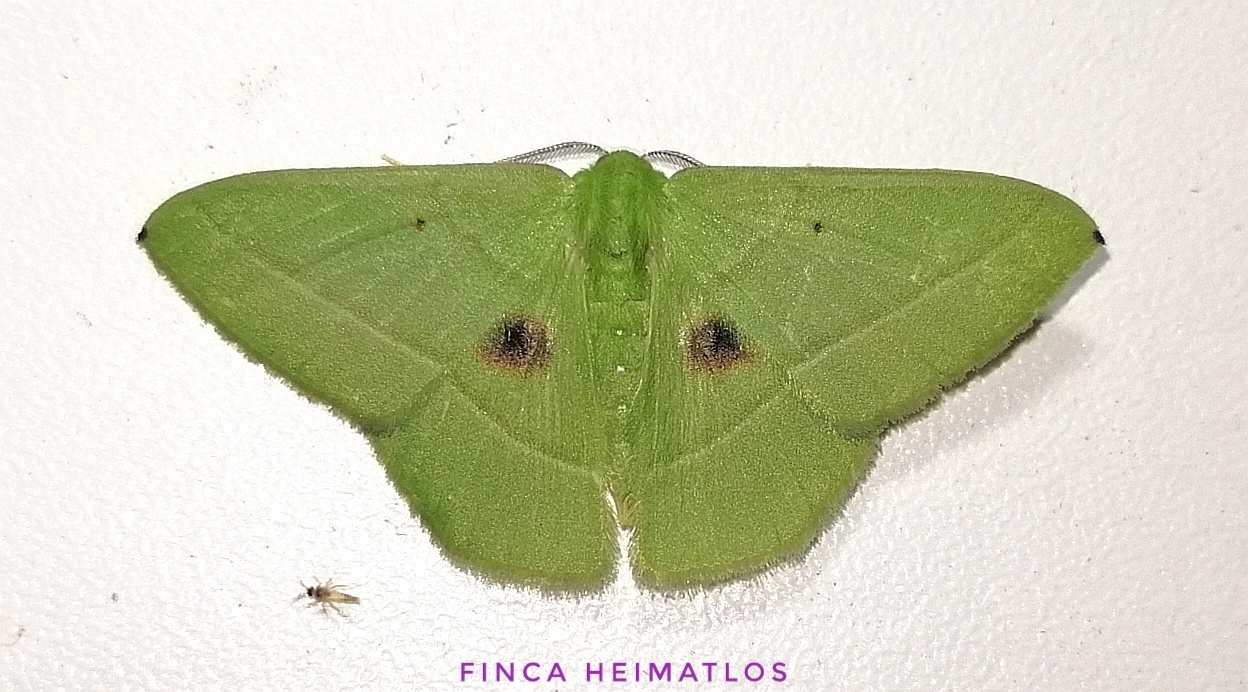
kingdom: Animalia
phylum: Arthropoda
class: Insecta
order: Lepidoptera
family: Geometridae
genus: Phrudocentra
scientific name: Phrudocentra discata
